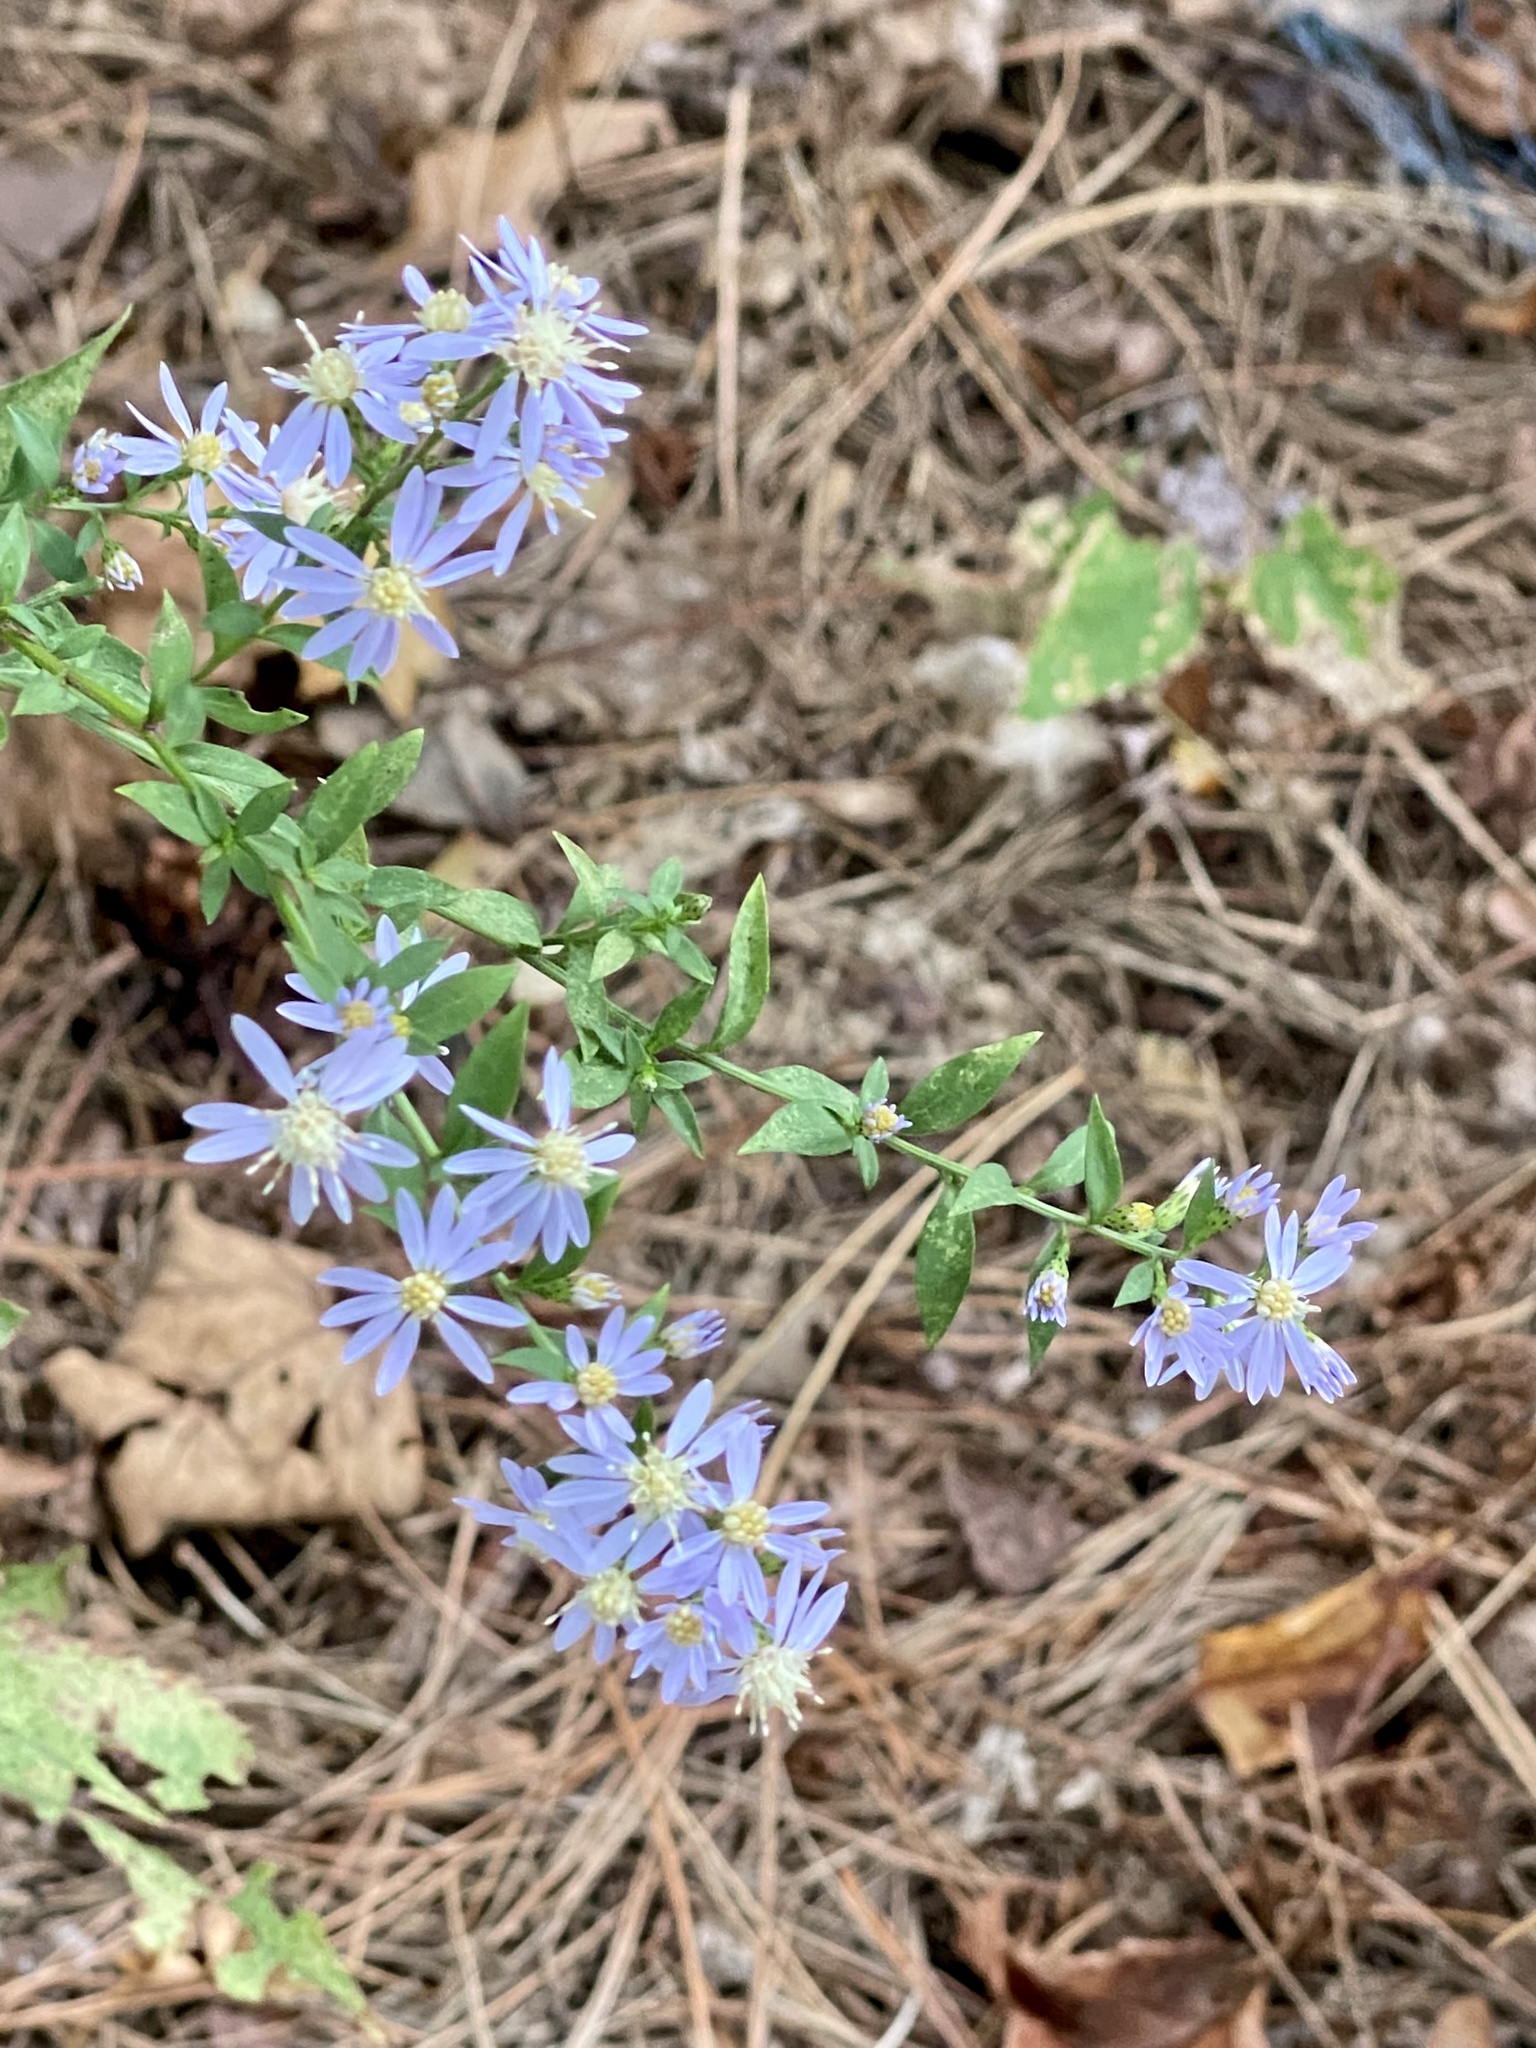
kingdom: Plantae
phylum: Tracheophyta
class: Magnoliopsida
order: Asterales
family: Asteraceae
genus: Symphyotrichum
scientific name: Symphyotrichum cordifolium
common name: Beeweed
